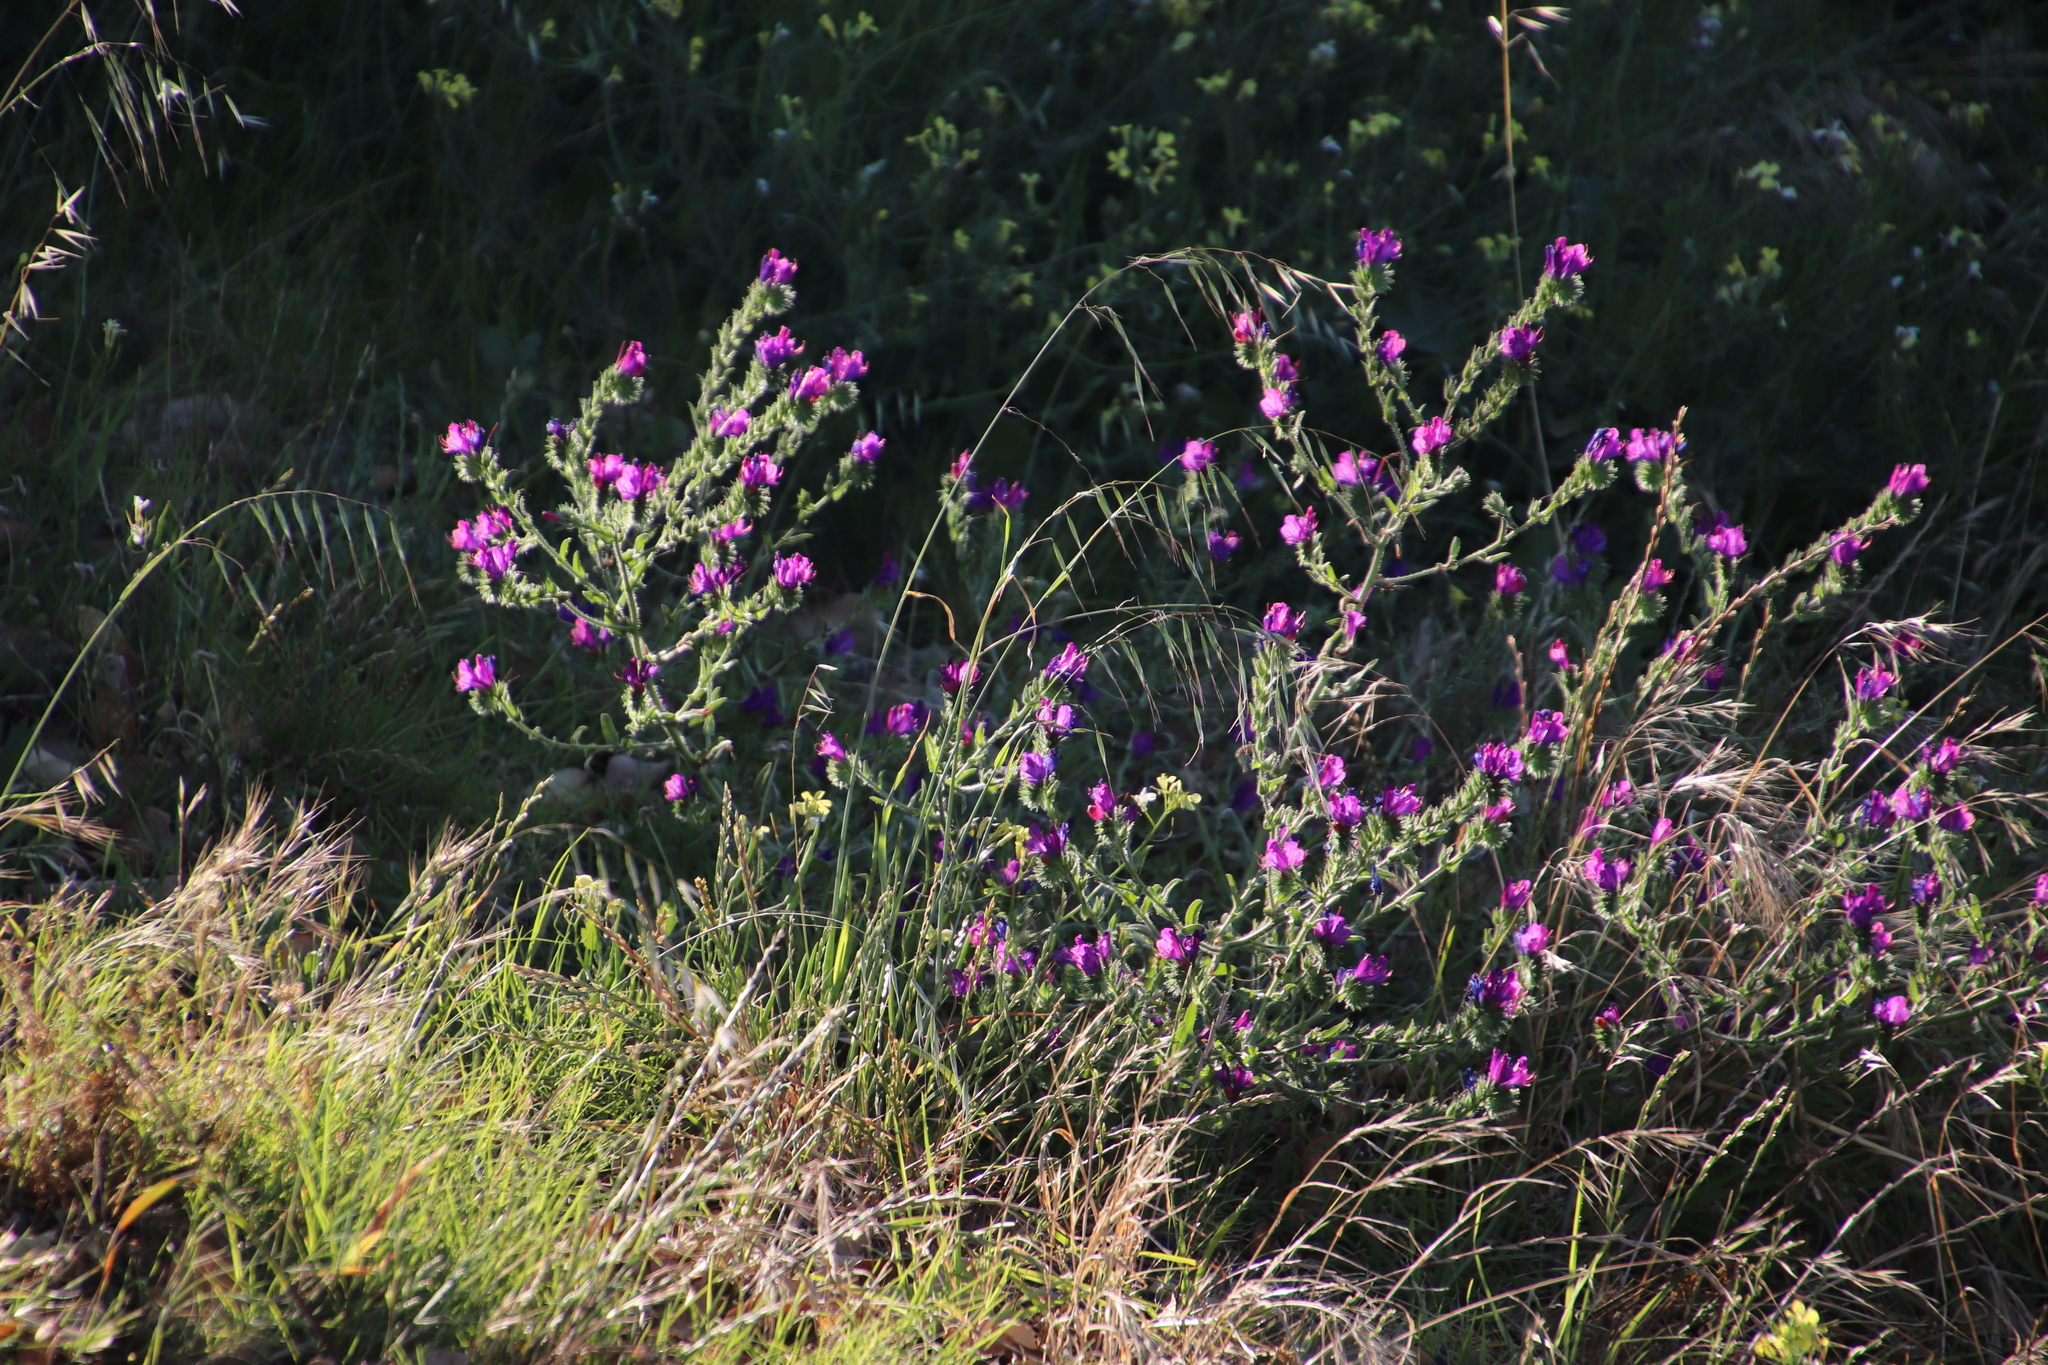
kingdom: Plantae
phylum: Tracheophyta
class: Magnoliopsida
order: Boraginales
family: Boraginaceae
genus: Echium
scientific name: Echium plantagineum
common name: Purple viper's-bugloss
